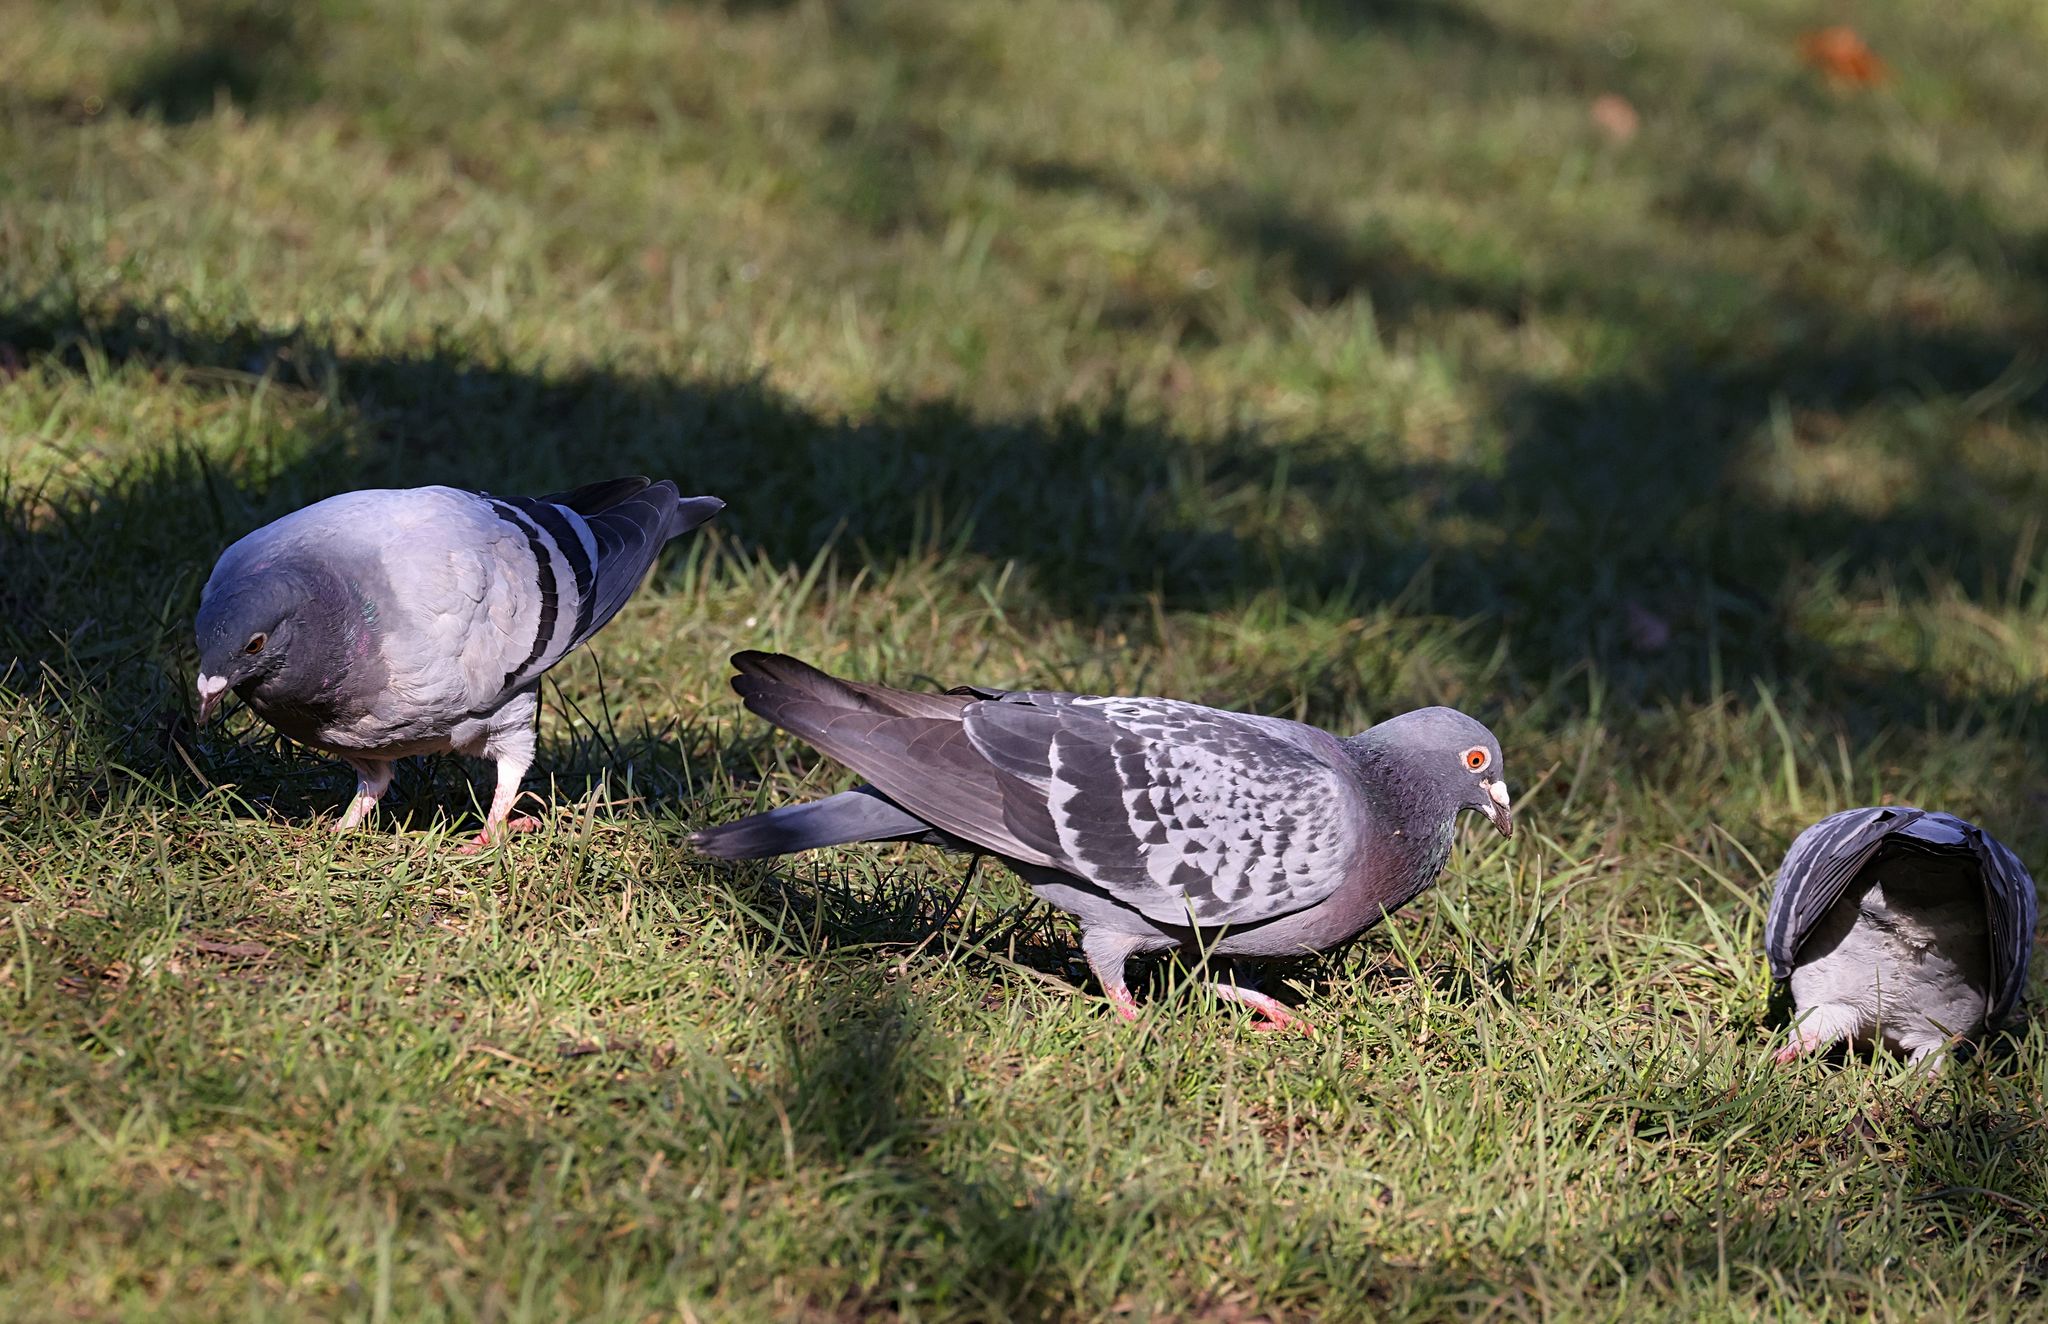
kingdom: Animalia
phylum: Chordata
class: Aves
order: Columbiformes
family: Columbidae
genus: Columba
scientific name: Columba livia
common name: Rock pigeon
